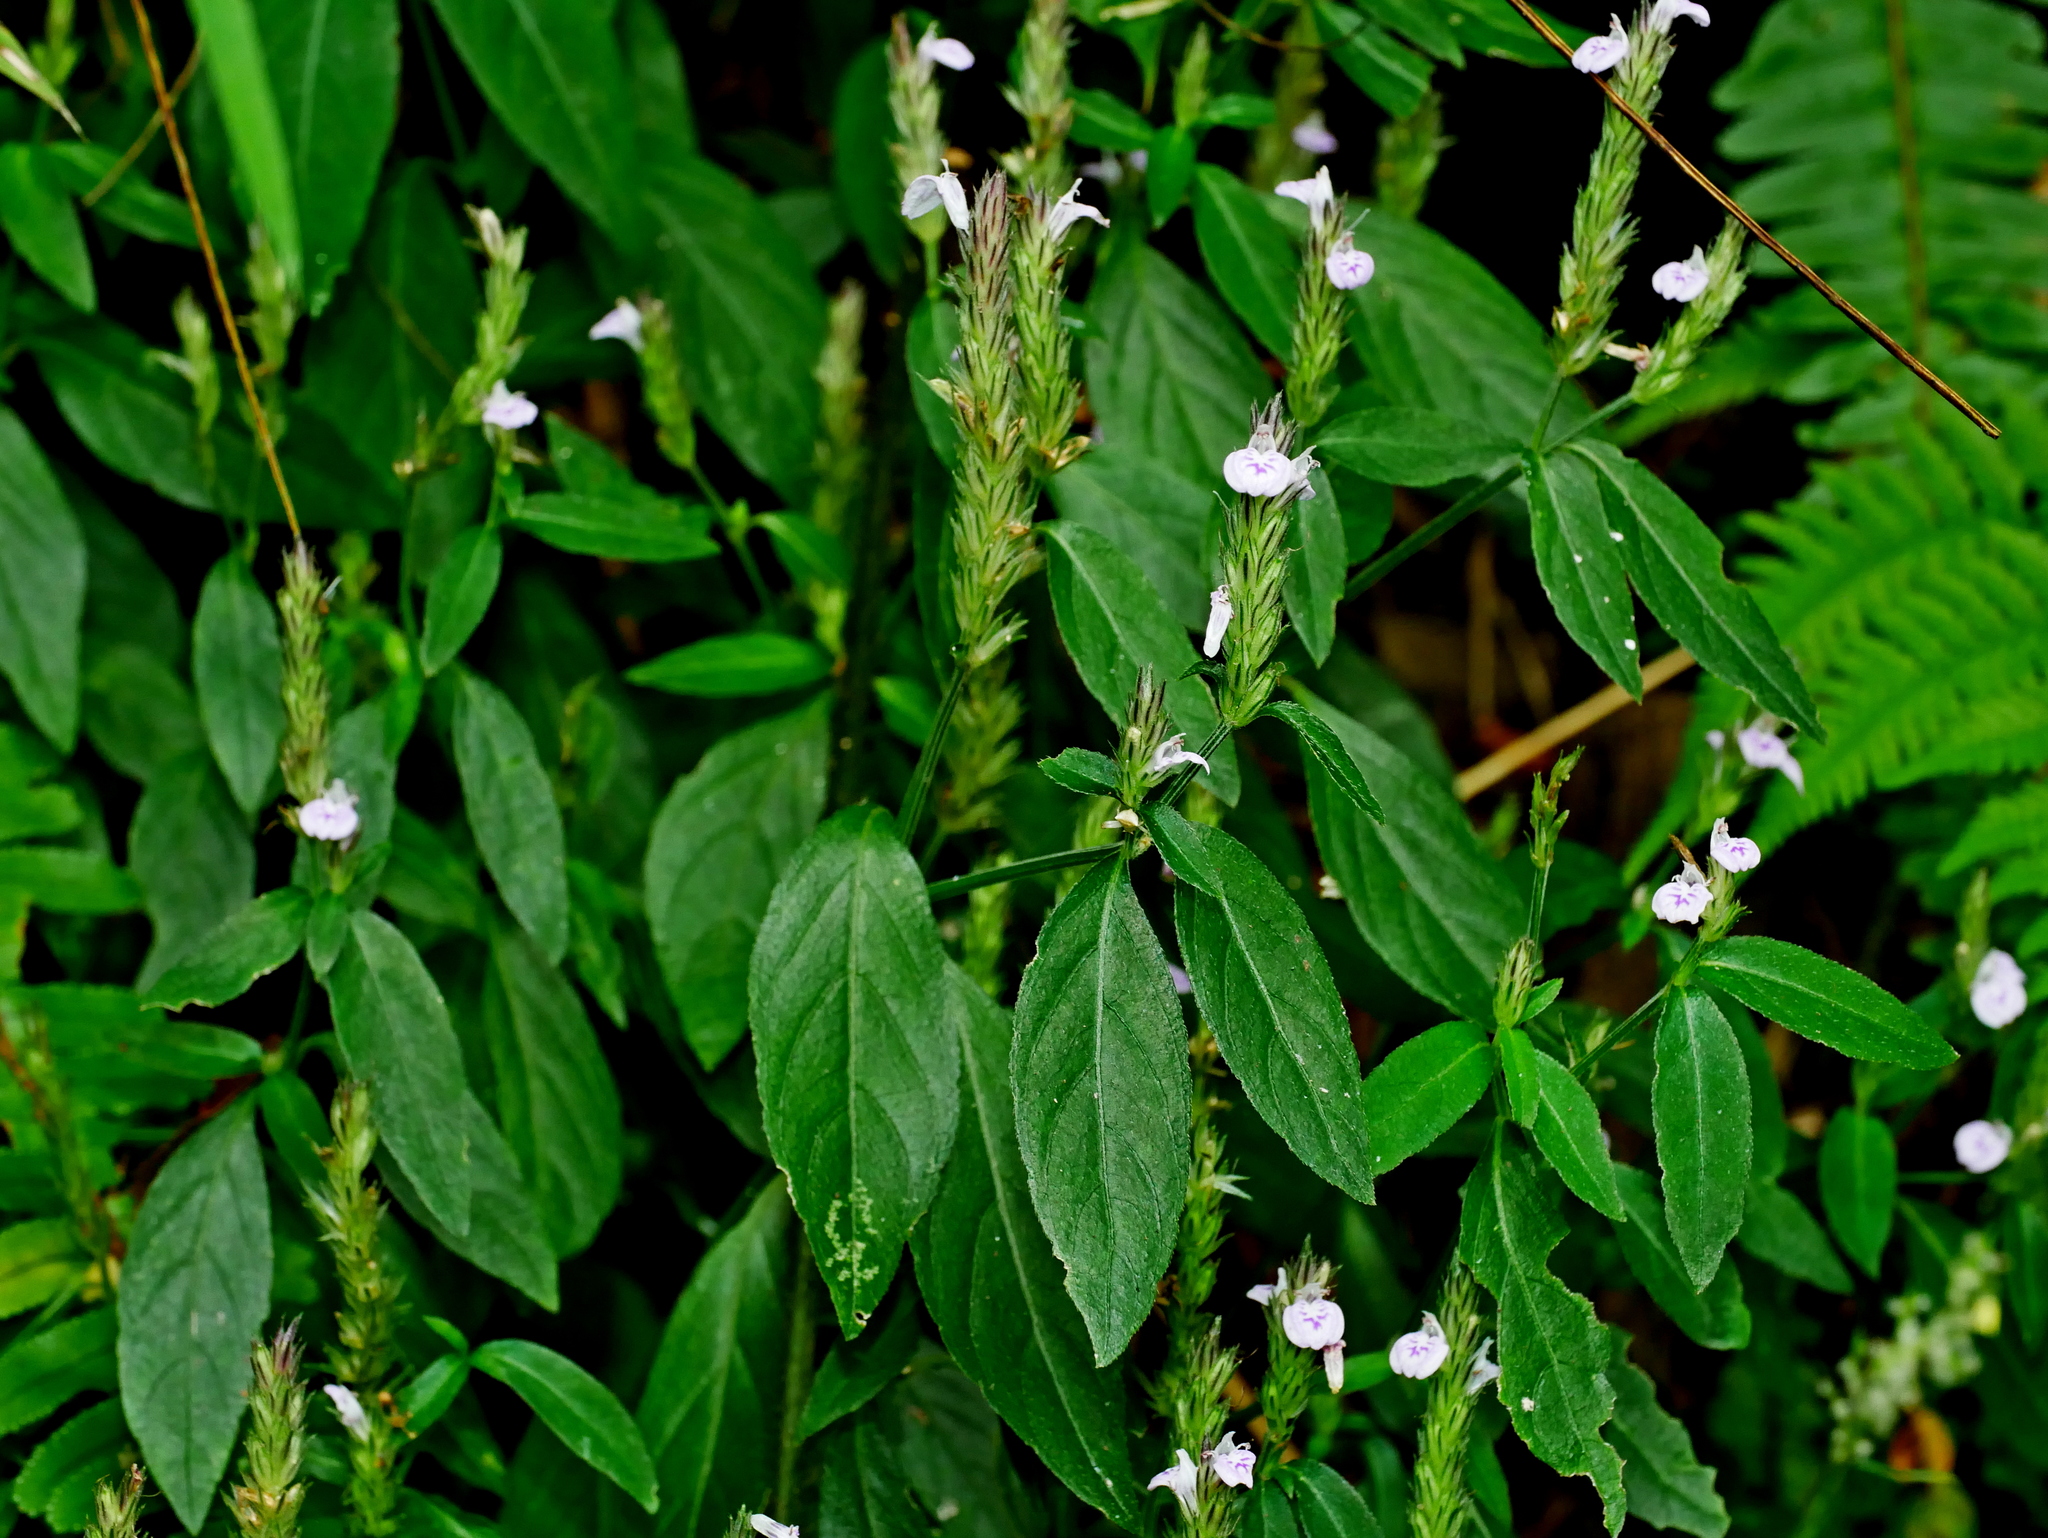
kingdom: Plantae
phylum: Tracheophyta
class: Magnoliopsida
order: Lamiales
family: Acanthaceae
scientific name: Acanthaceae
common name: Acanthaceae
